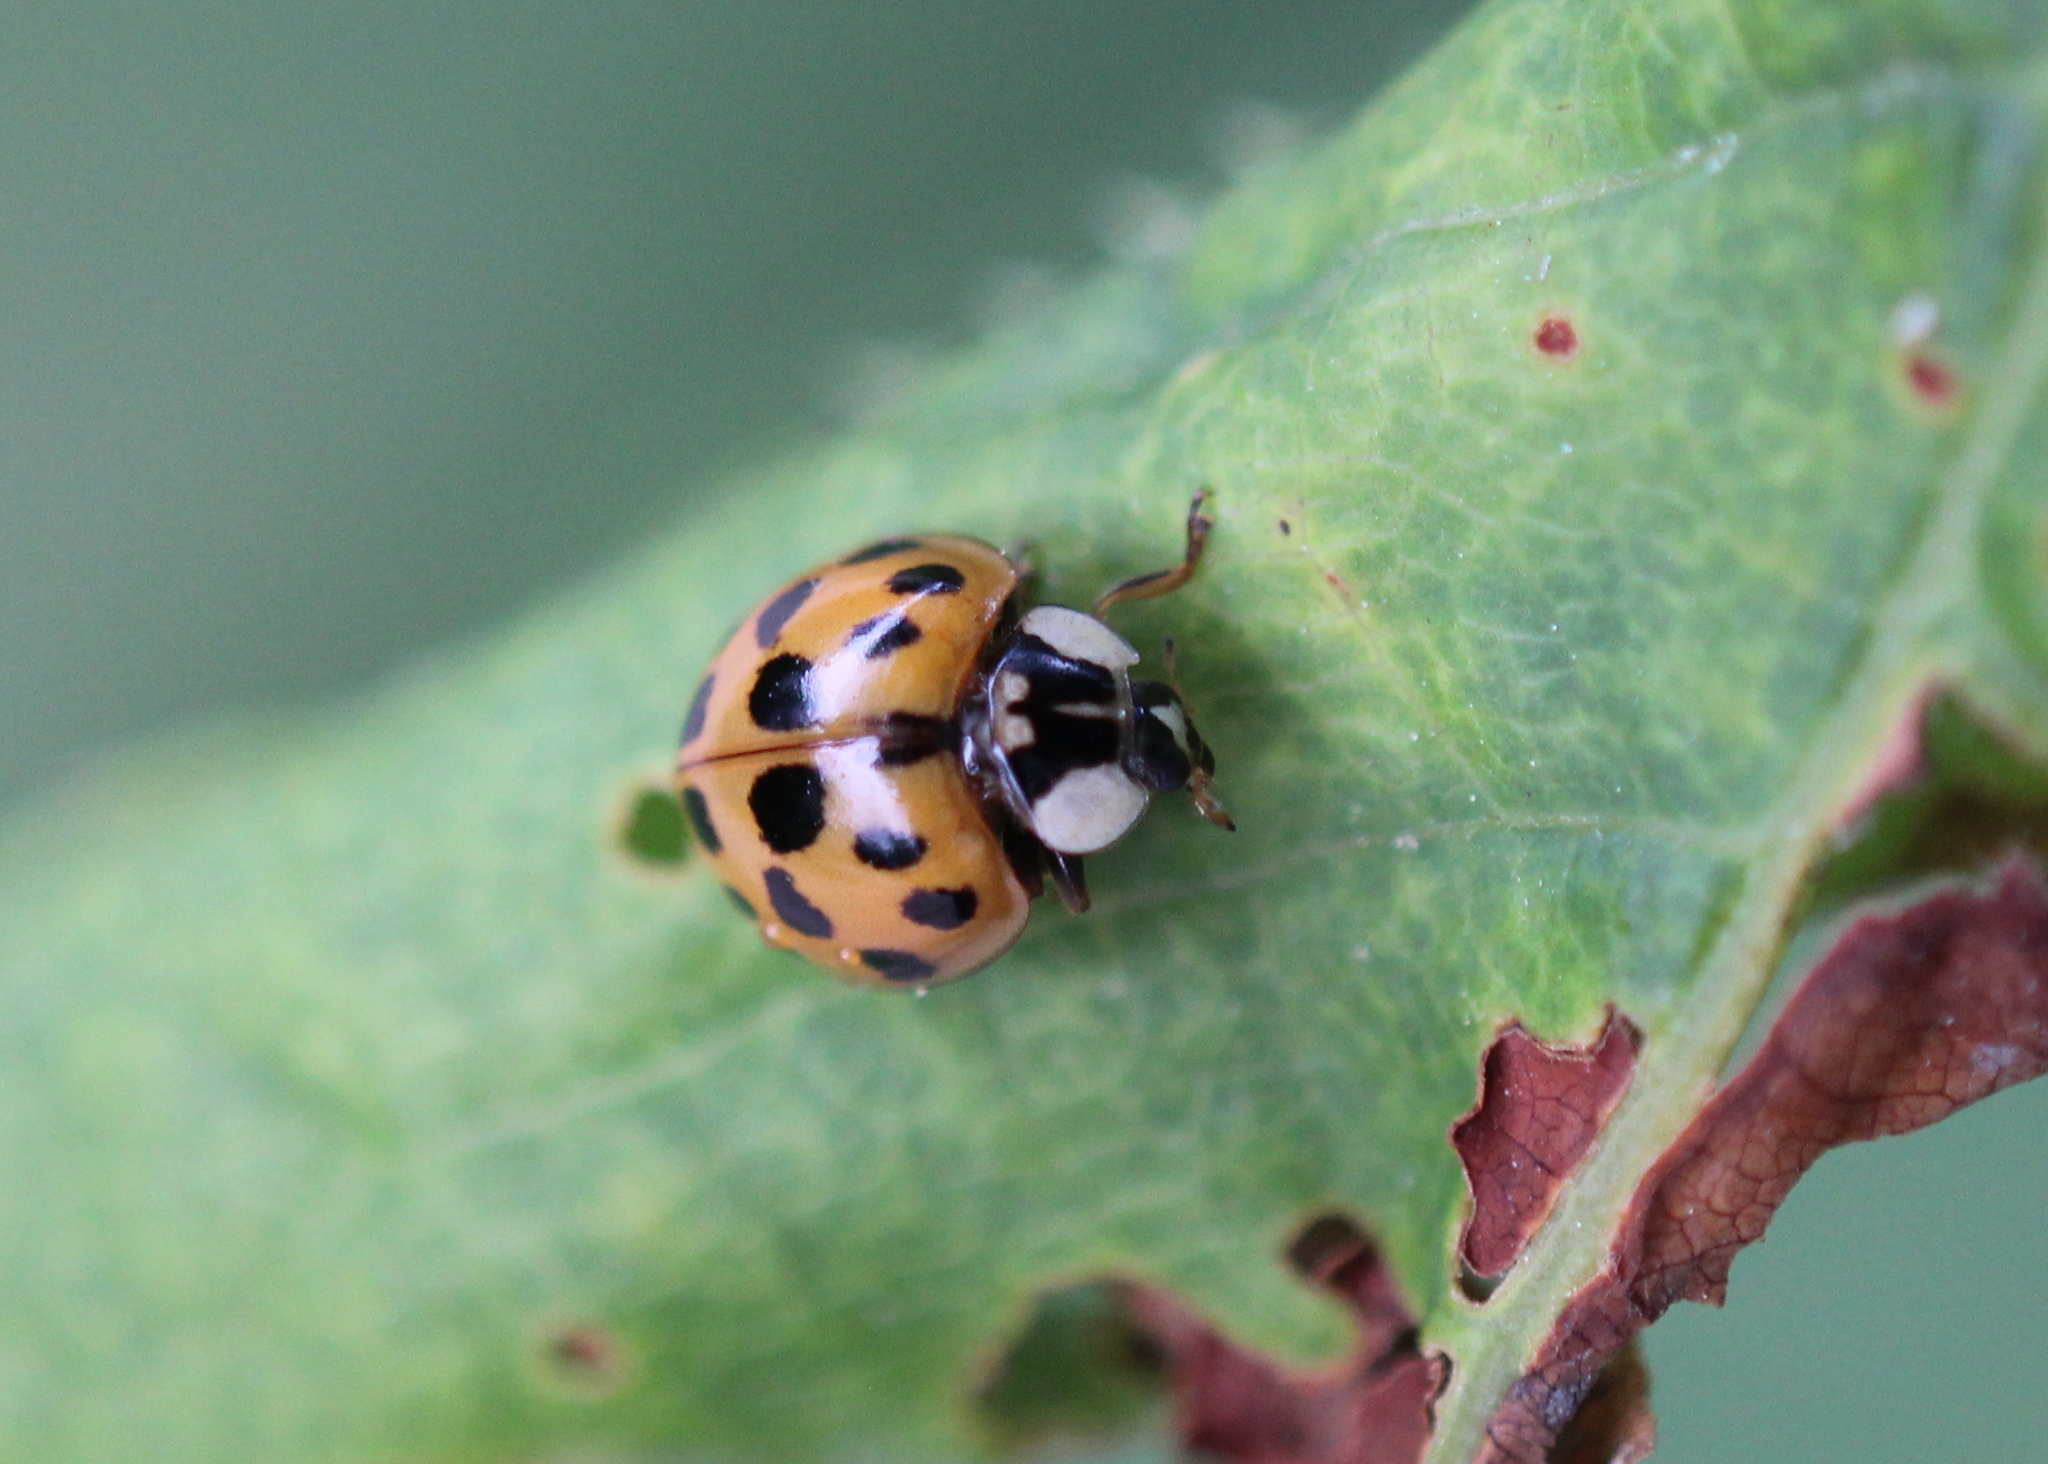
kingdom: Animalia
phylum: Arthropoda
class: Insecta
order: Coleoptera
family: Coccinellidae
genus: Harmonia
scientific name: Harmonia axyridis
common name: Harlequin ladybird
